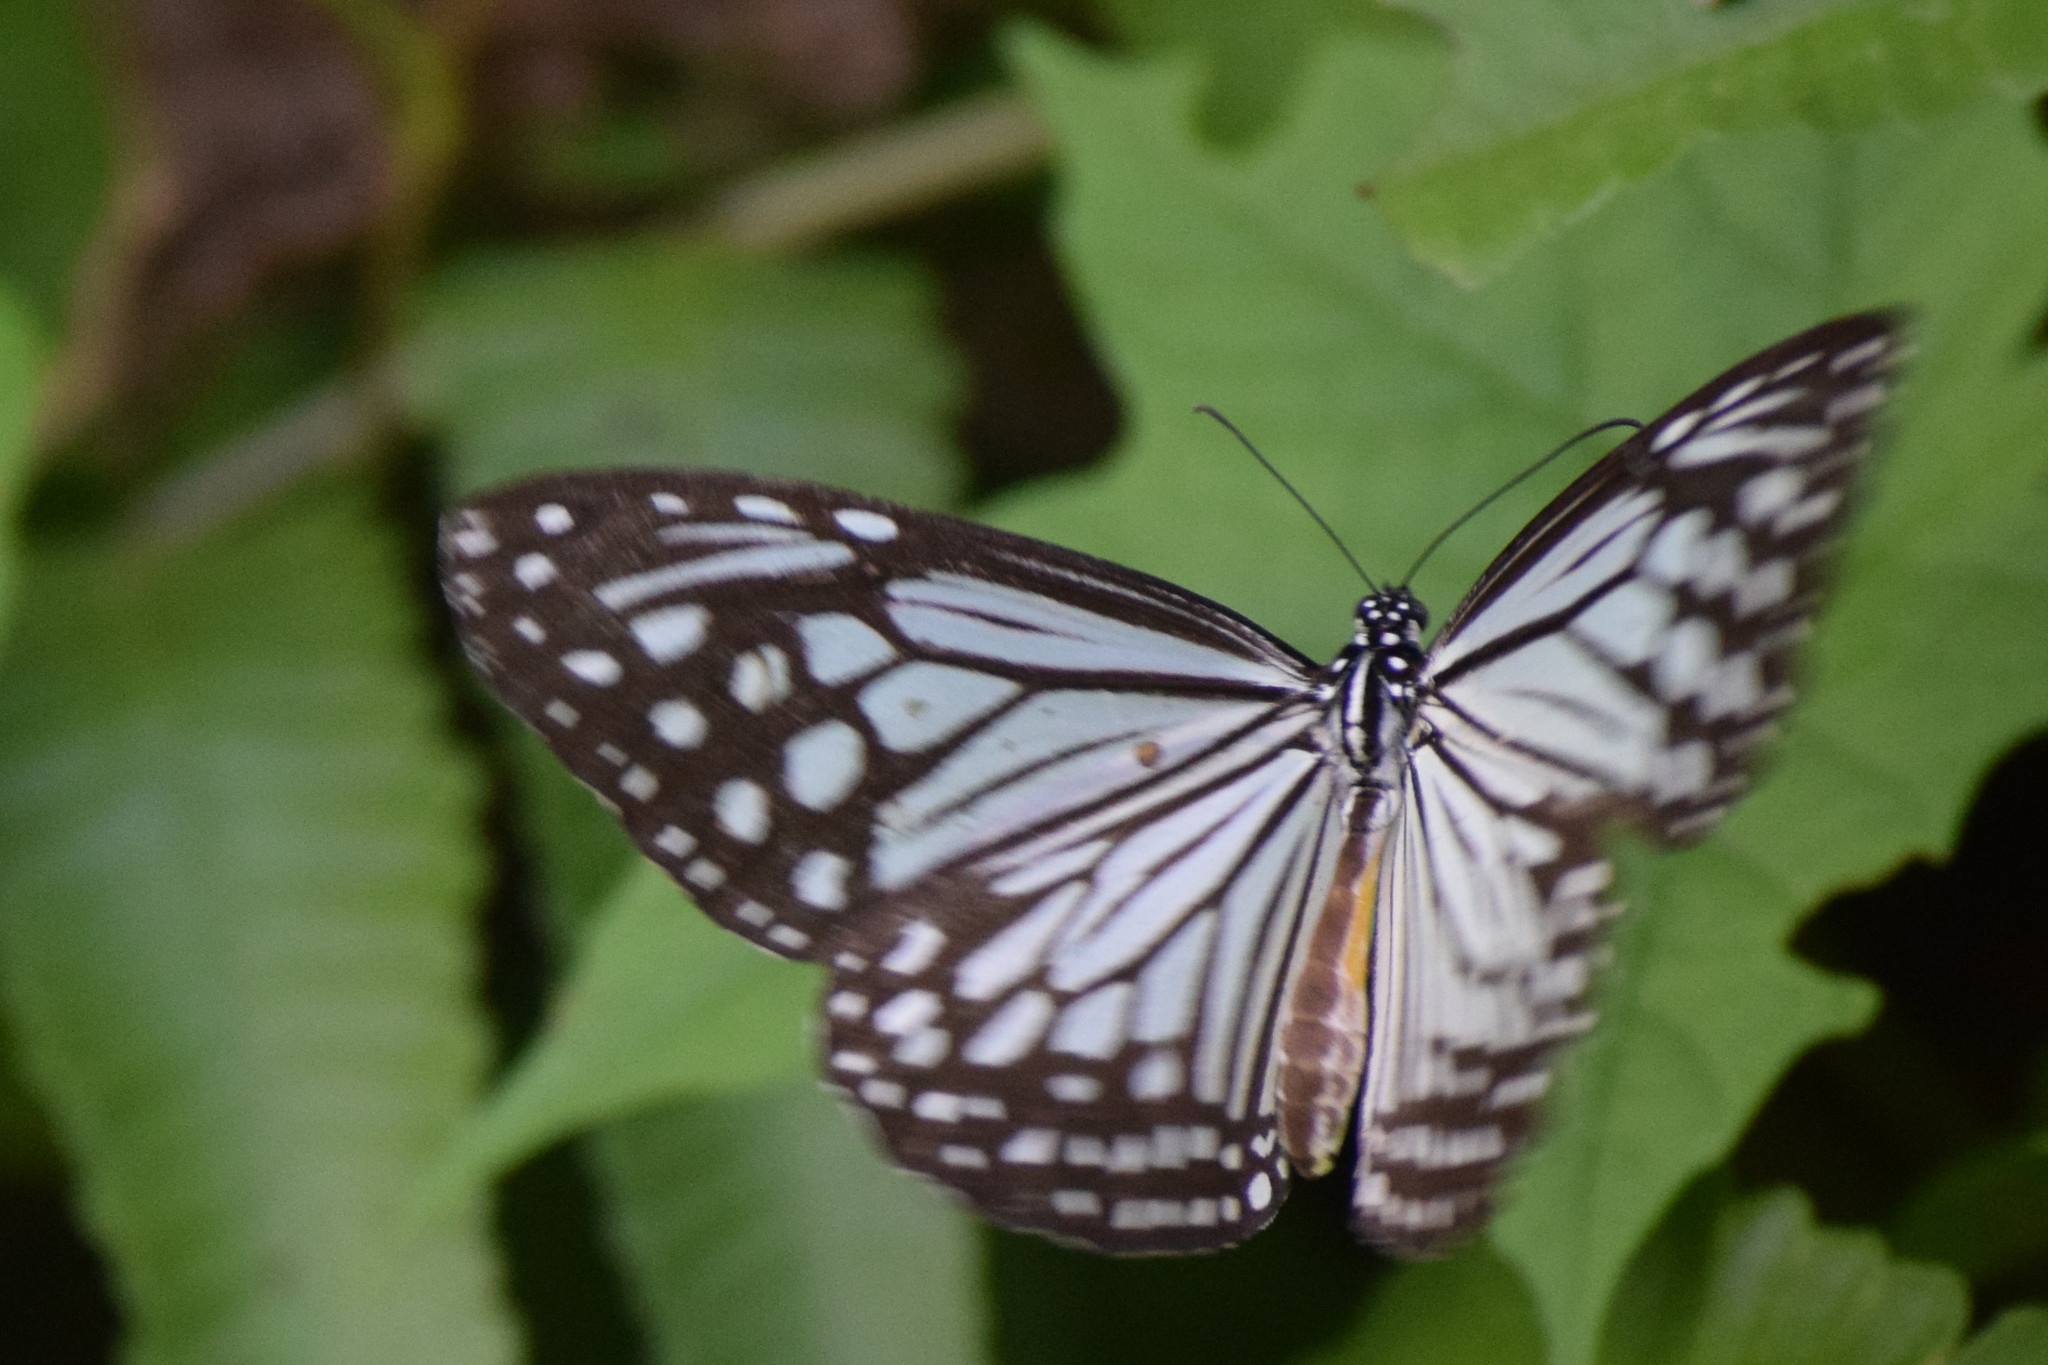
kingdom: Animalia
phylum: Arthropoda
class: Insecta
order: Lepidoptera
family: Nymphalidae
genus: Parantica
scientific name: Parantica aglea
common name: Glassy tiger
